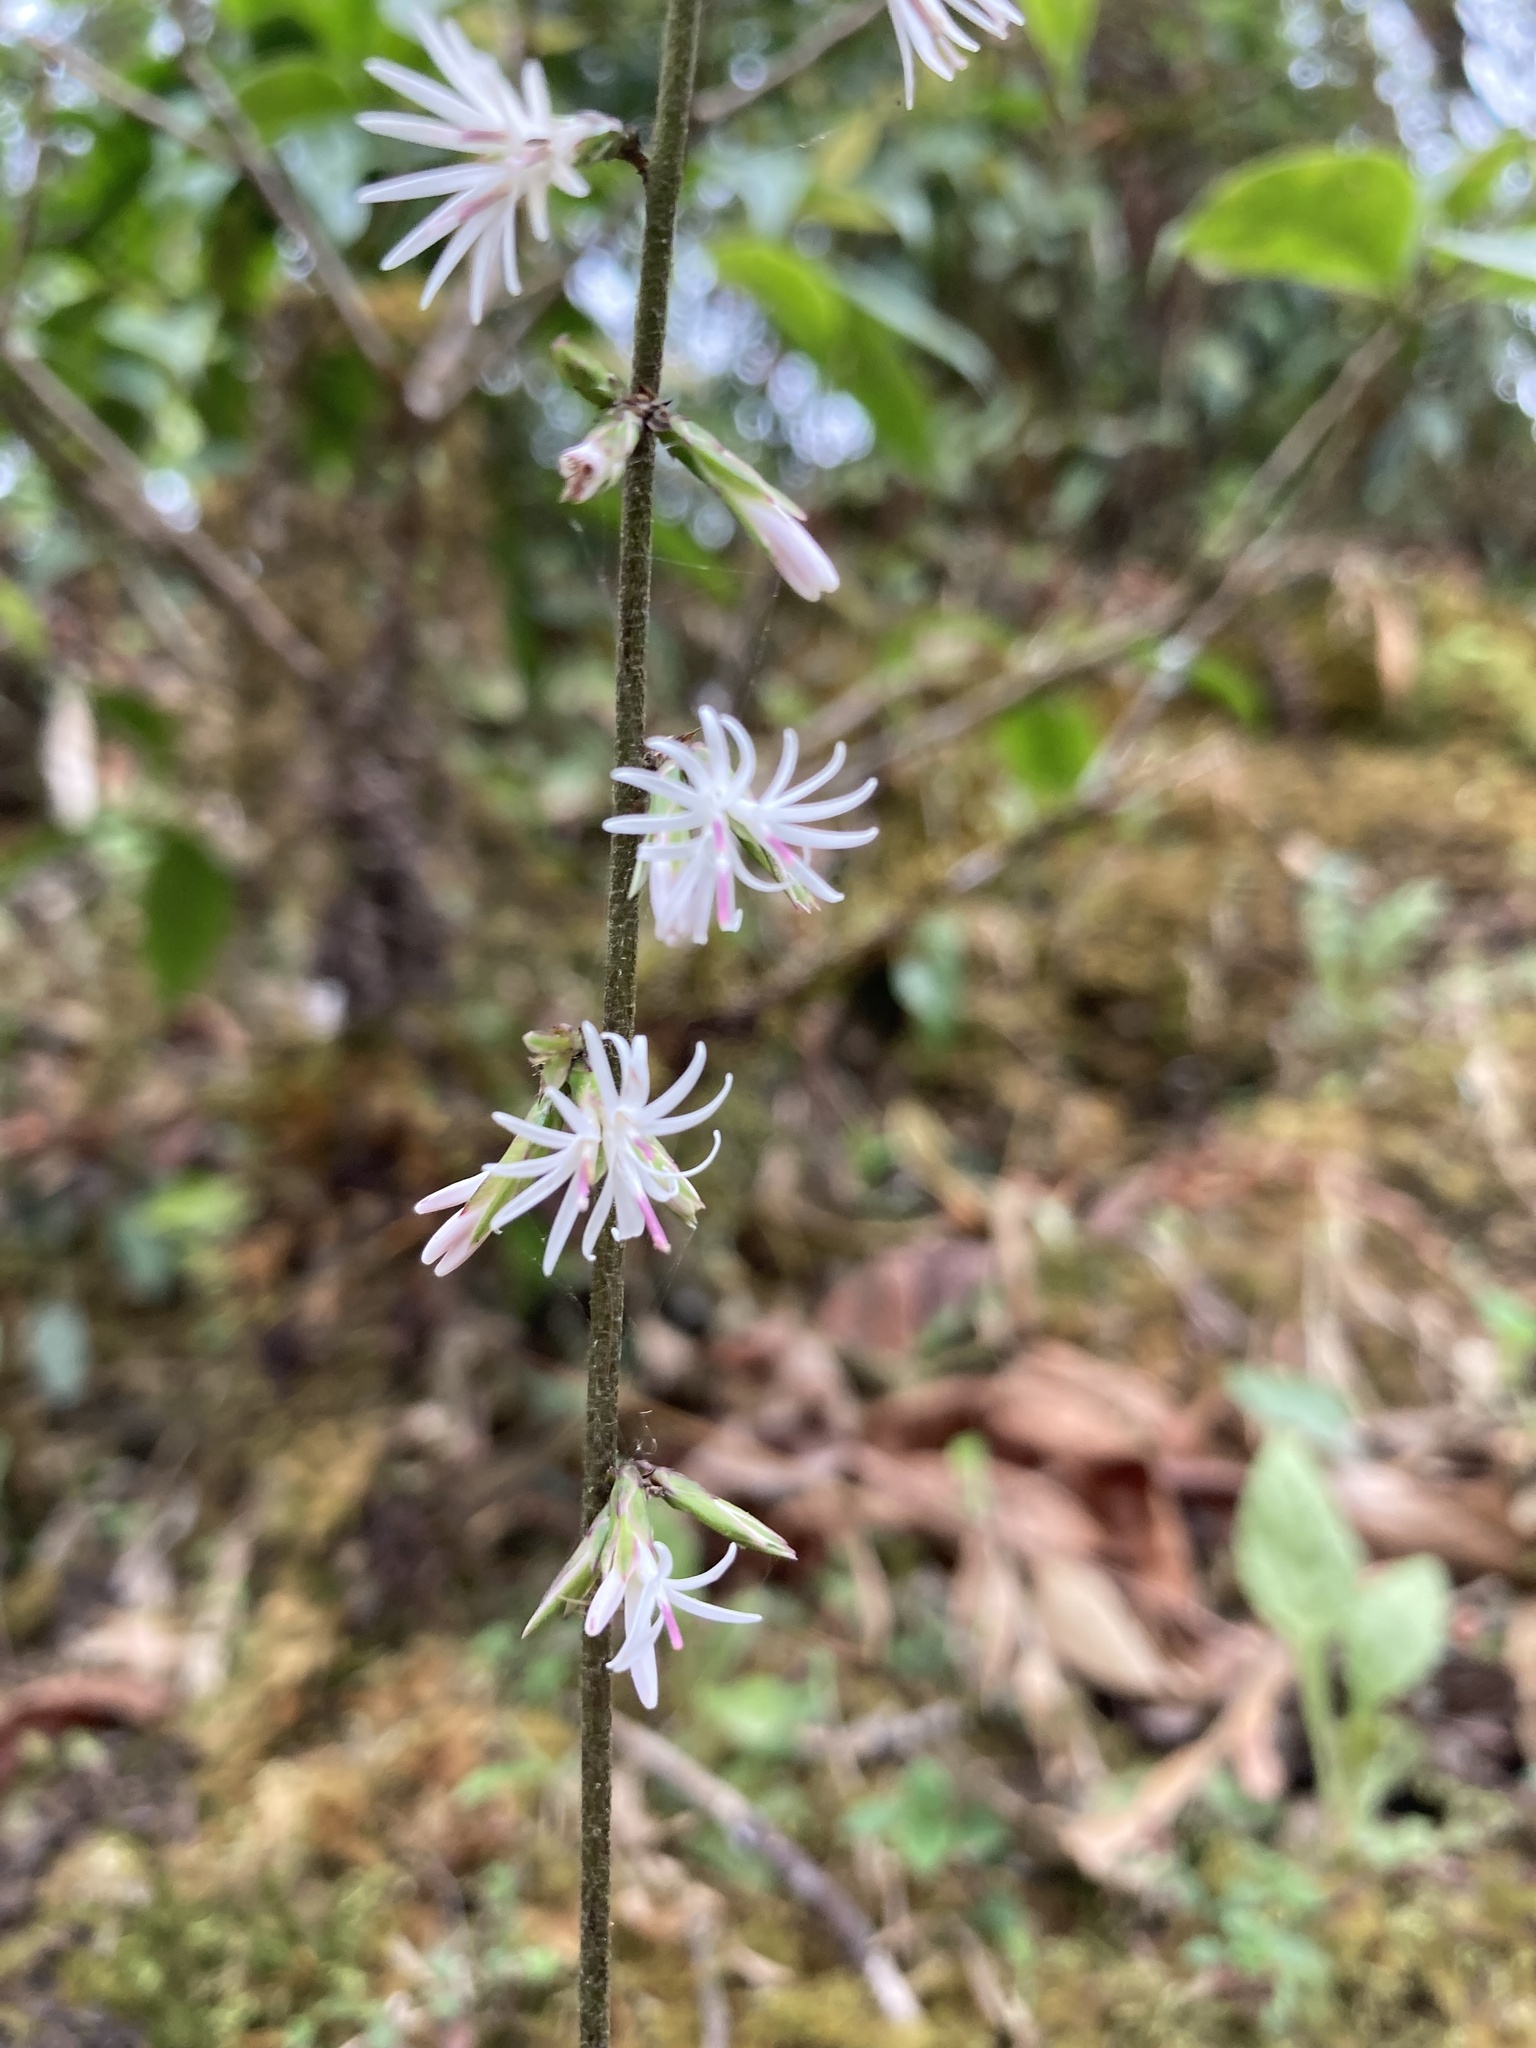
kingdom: Plantae
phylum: Tracheophyta
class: Magnoliopsida
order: Asterales
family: Asteraceae
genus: Ainsliaea
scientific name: Ainsliaea aptera
